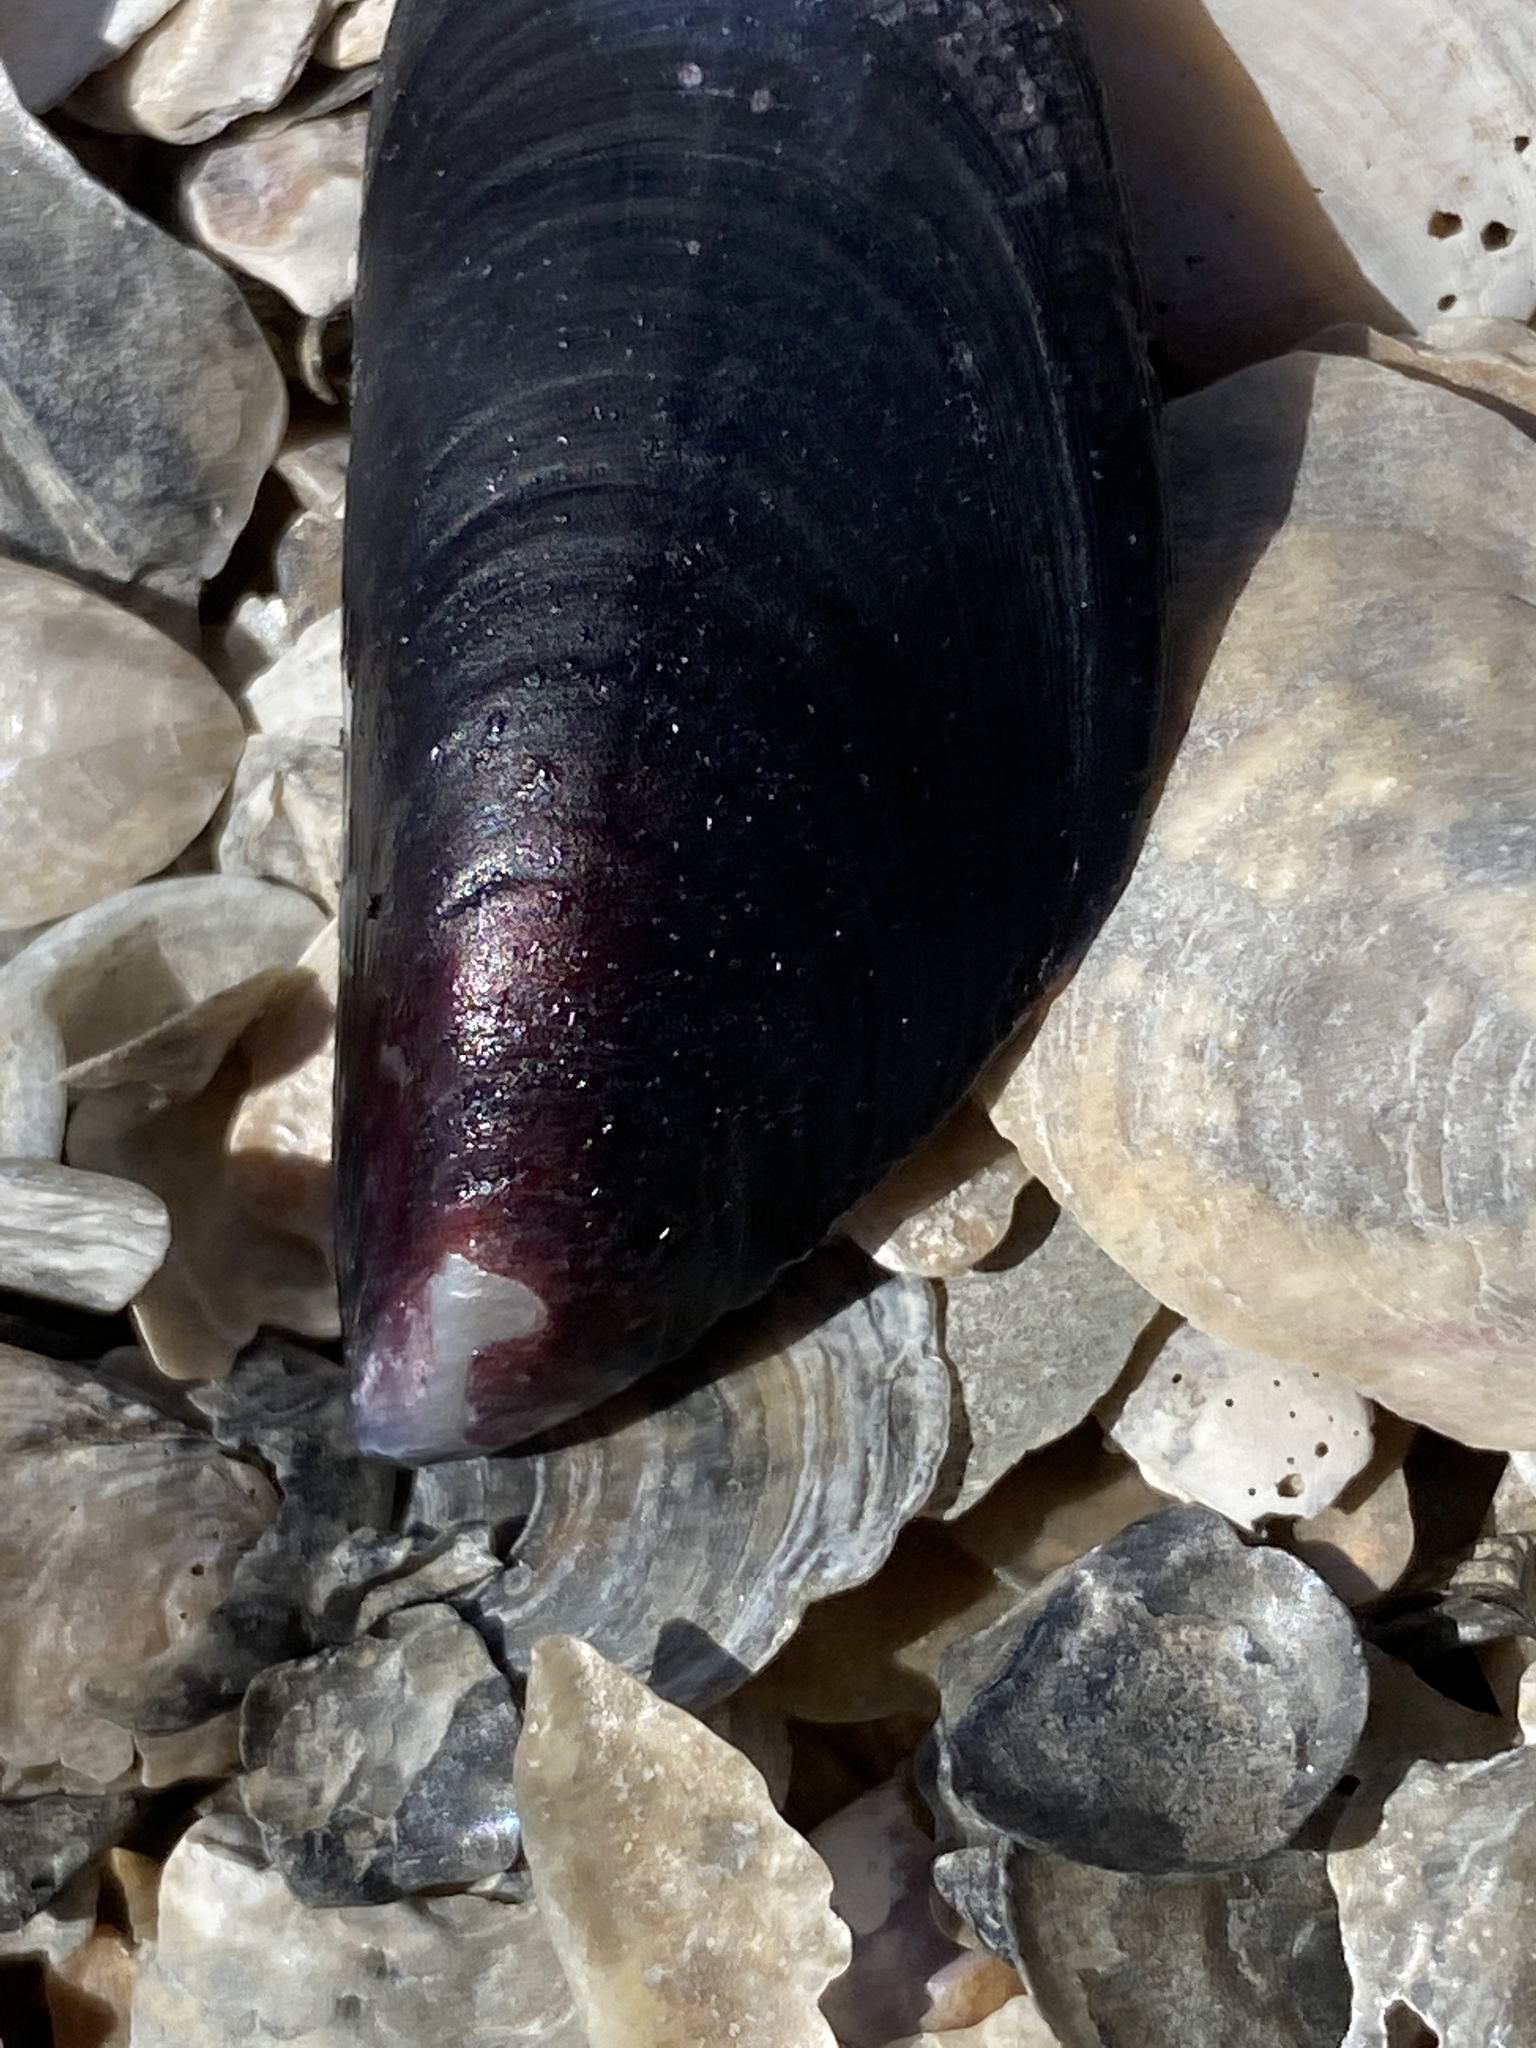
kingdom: Animalia
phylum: Mollusca
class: Bivalvia
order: Mytilida
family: Mytilidae
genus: Mytilus
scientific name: Mytilus
